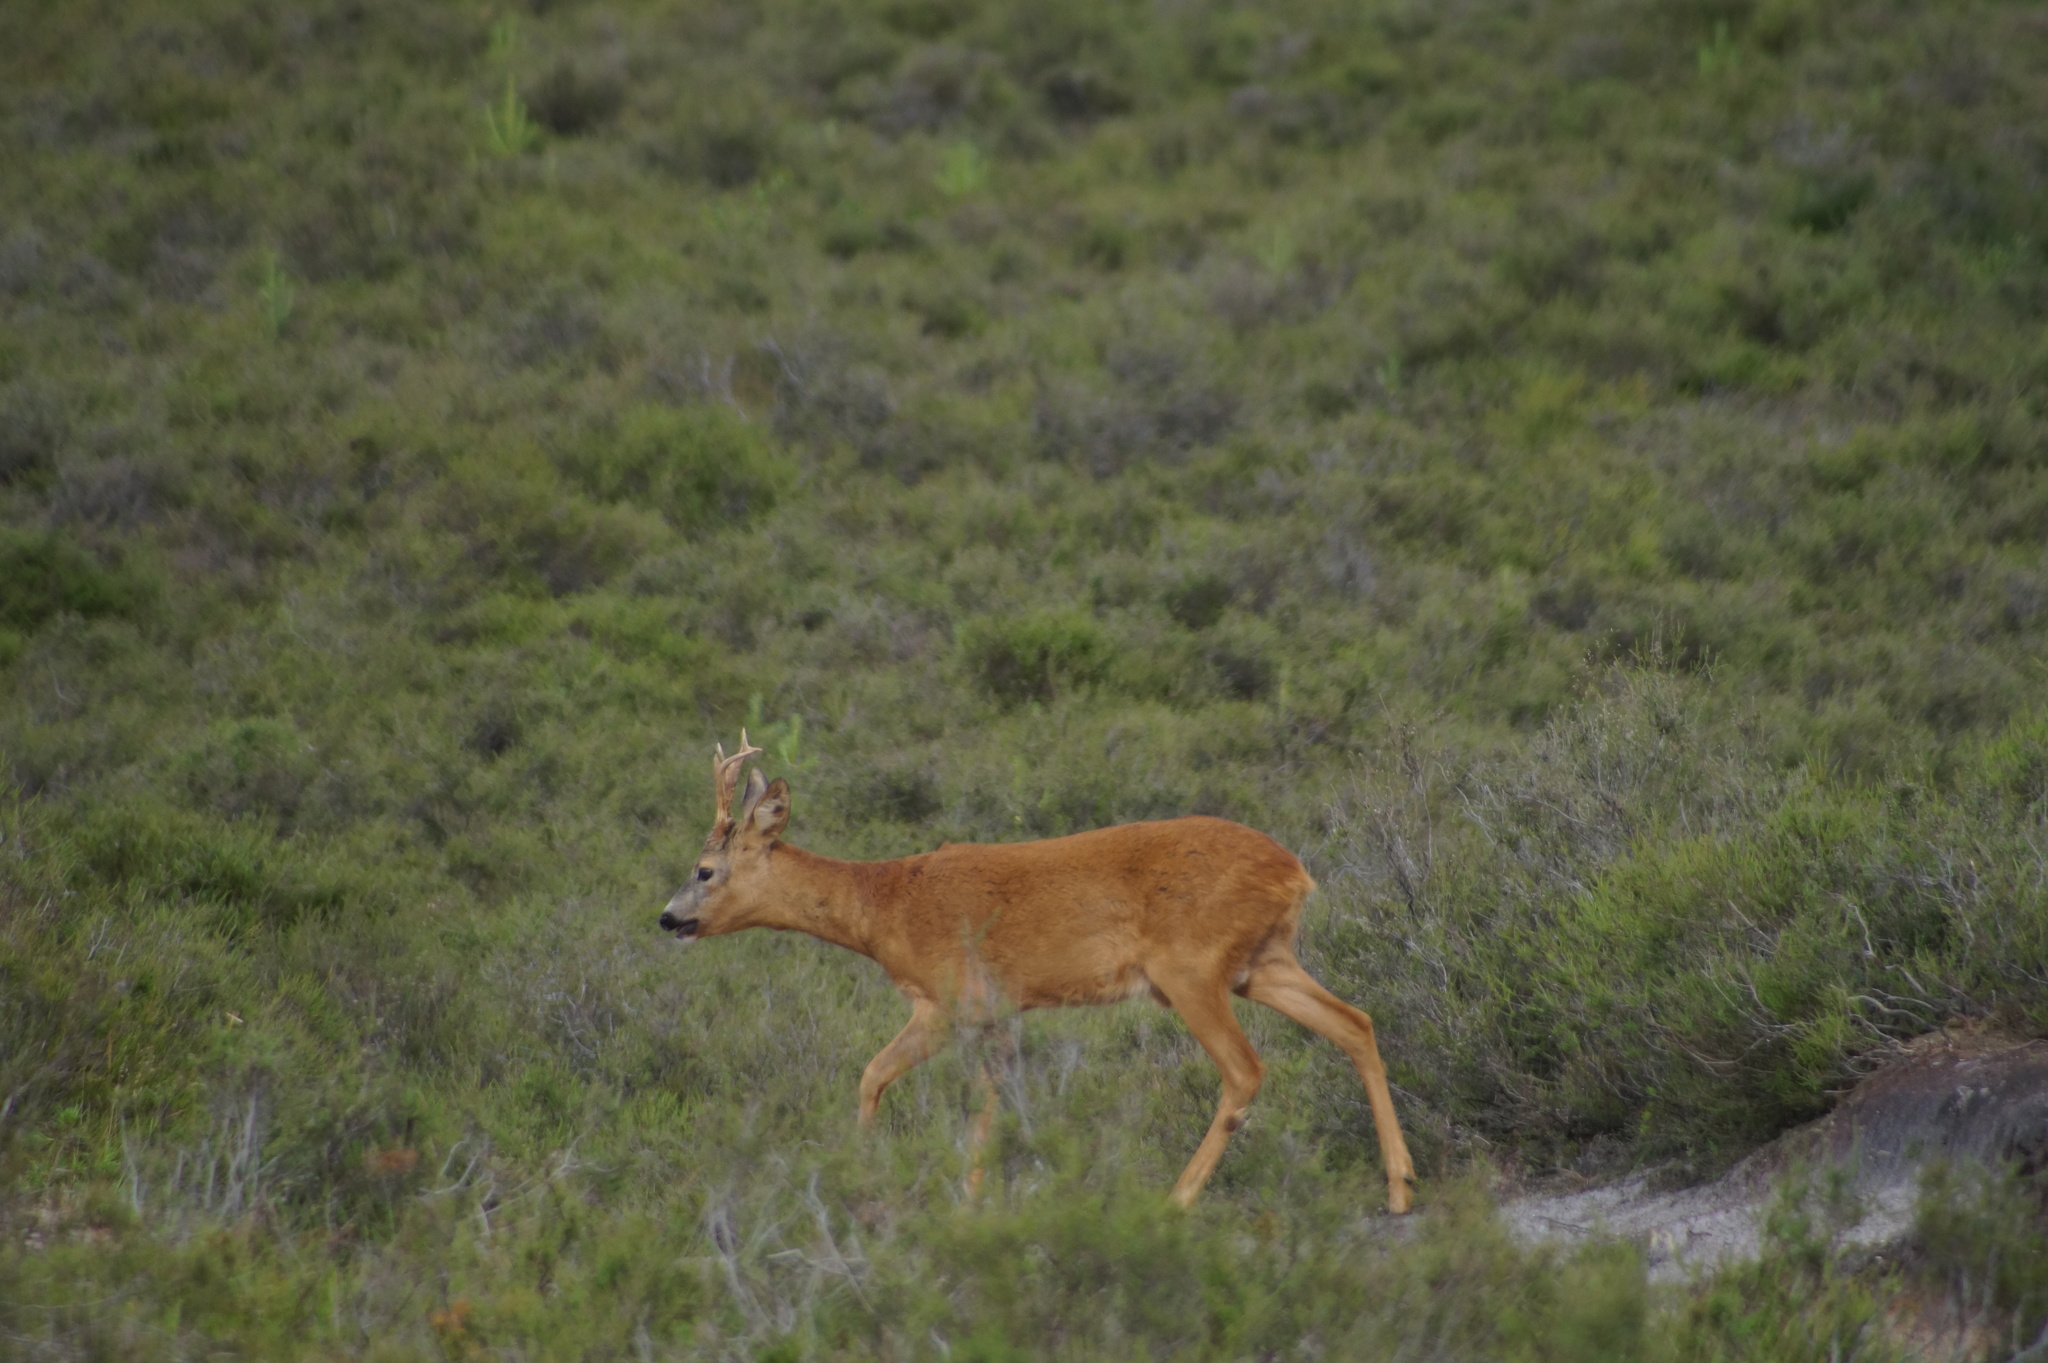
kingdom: Animalia
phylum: Chordata
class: Mammalia
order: Artiodactyla
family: Cervidae
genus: Capreolus
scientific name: Capreolus capreolus
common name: Western roe deer
